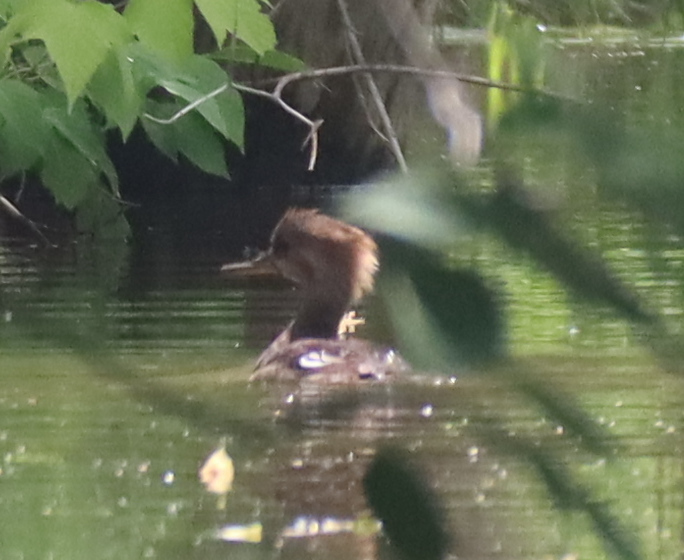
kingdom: Animalia
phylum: Chordata
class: Aves
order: Anseriformes
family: Anatidae
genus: Lophodytes
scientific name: Lophodytes cucullatus
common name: Hooded merganser
